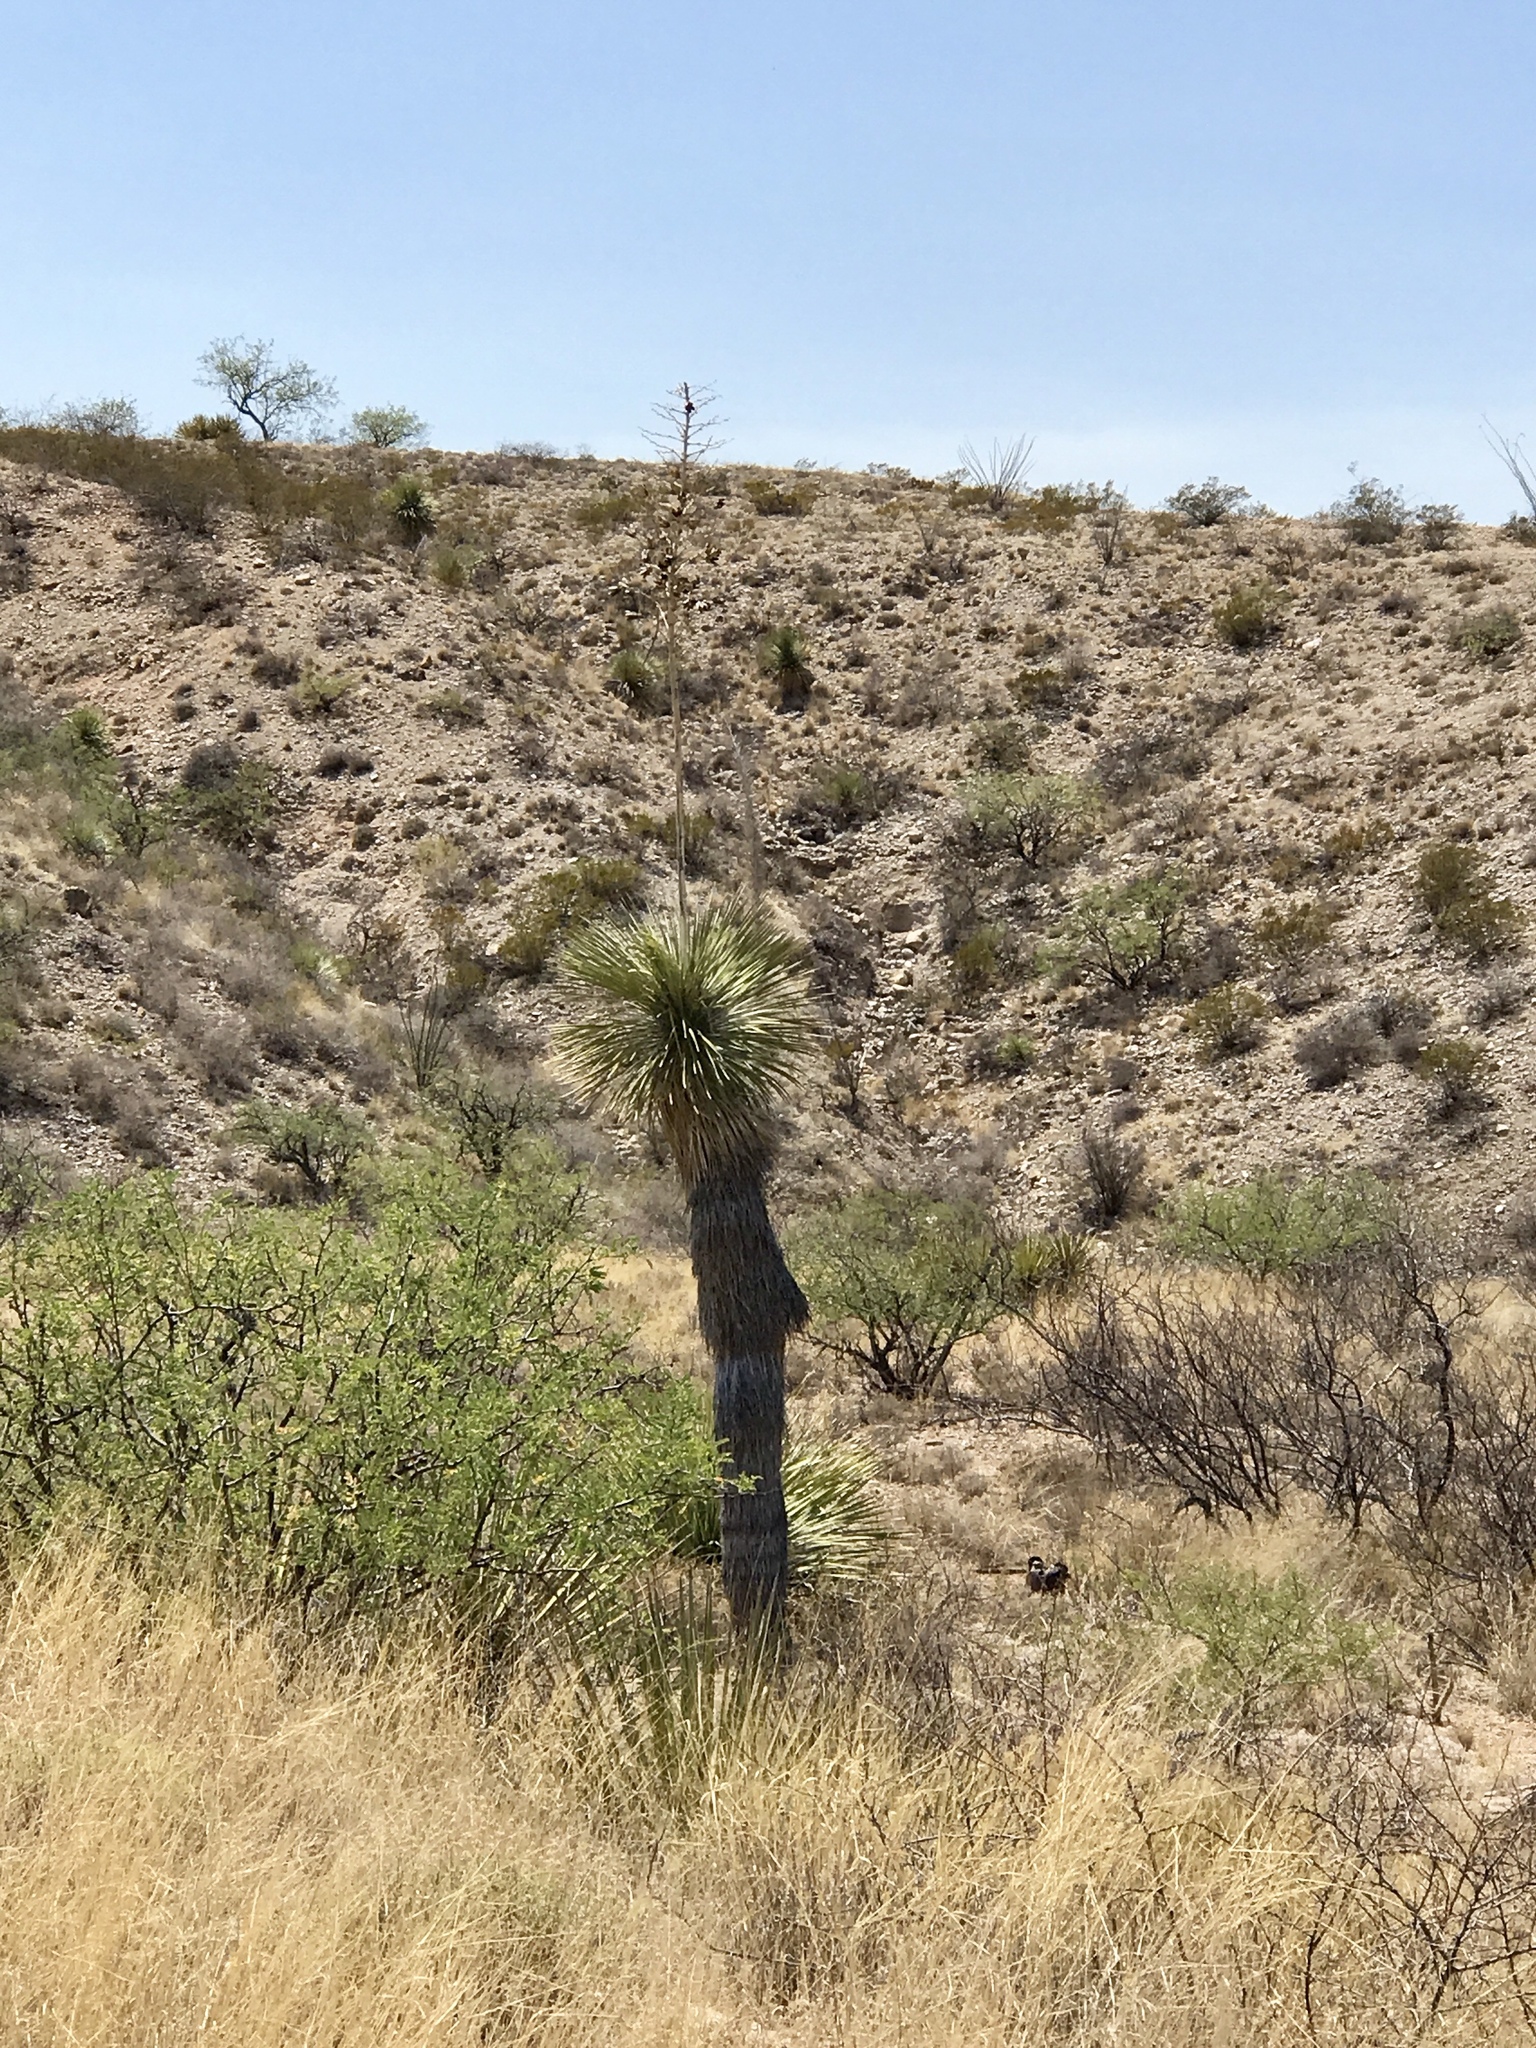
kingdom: Plantae
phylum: Tracheophyta
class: Liliopsida
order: Asparagales
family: Asparagaceae
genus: Yucca
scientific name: Yucca elata
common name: Palmella
